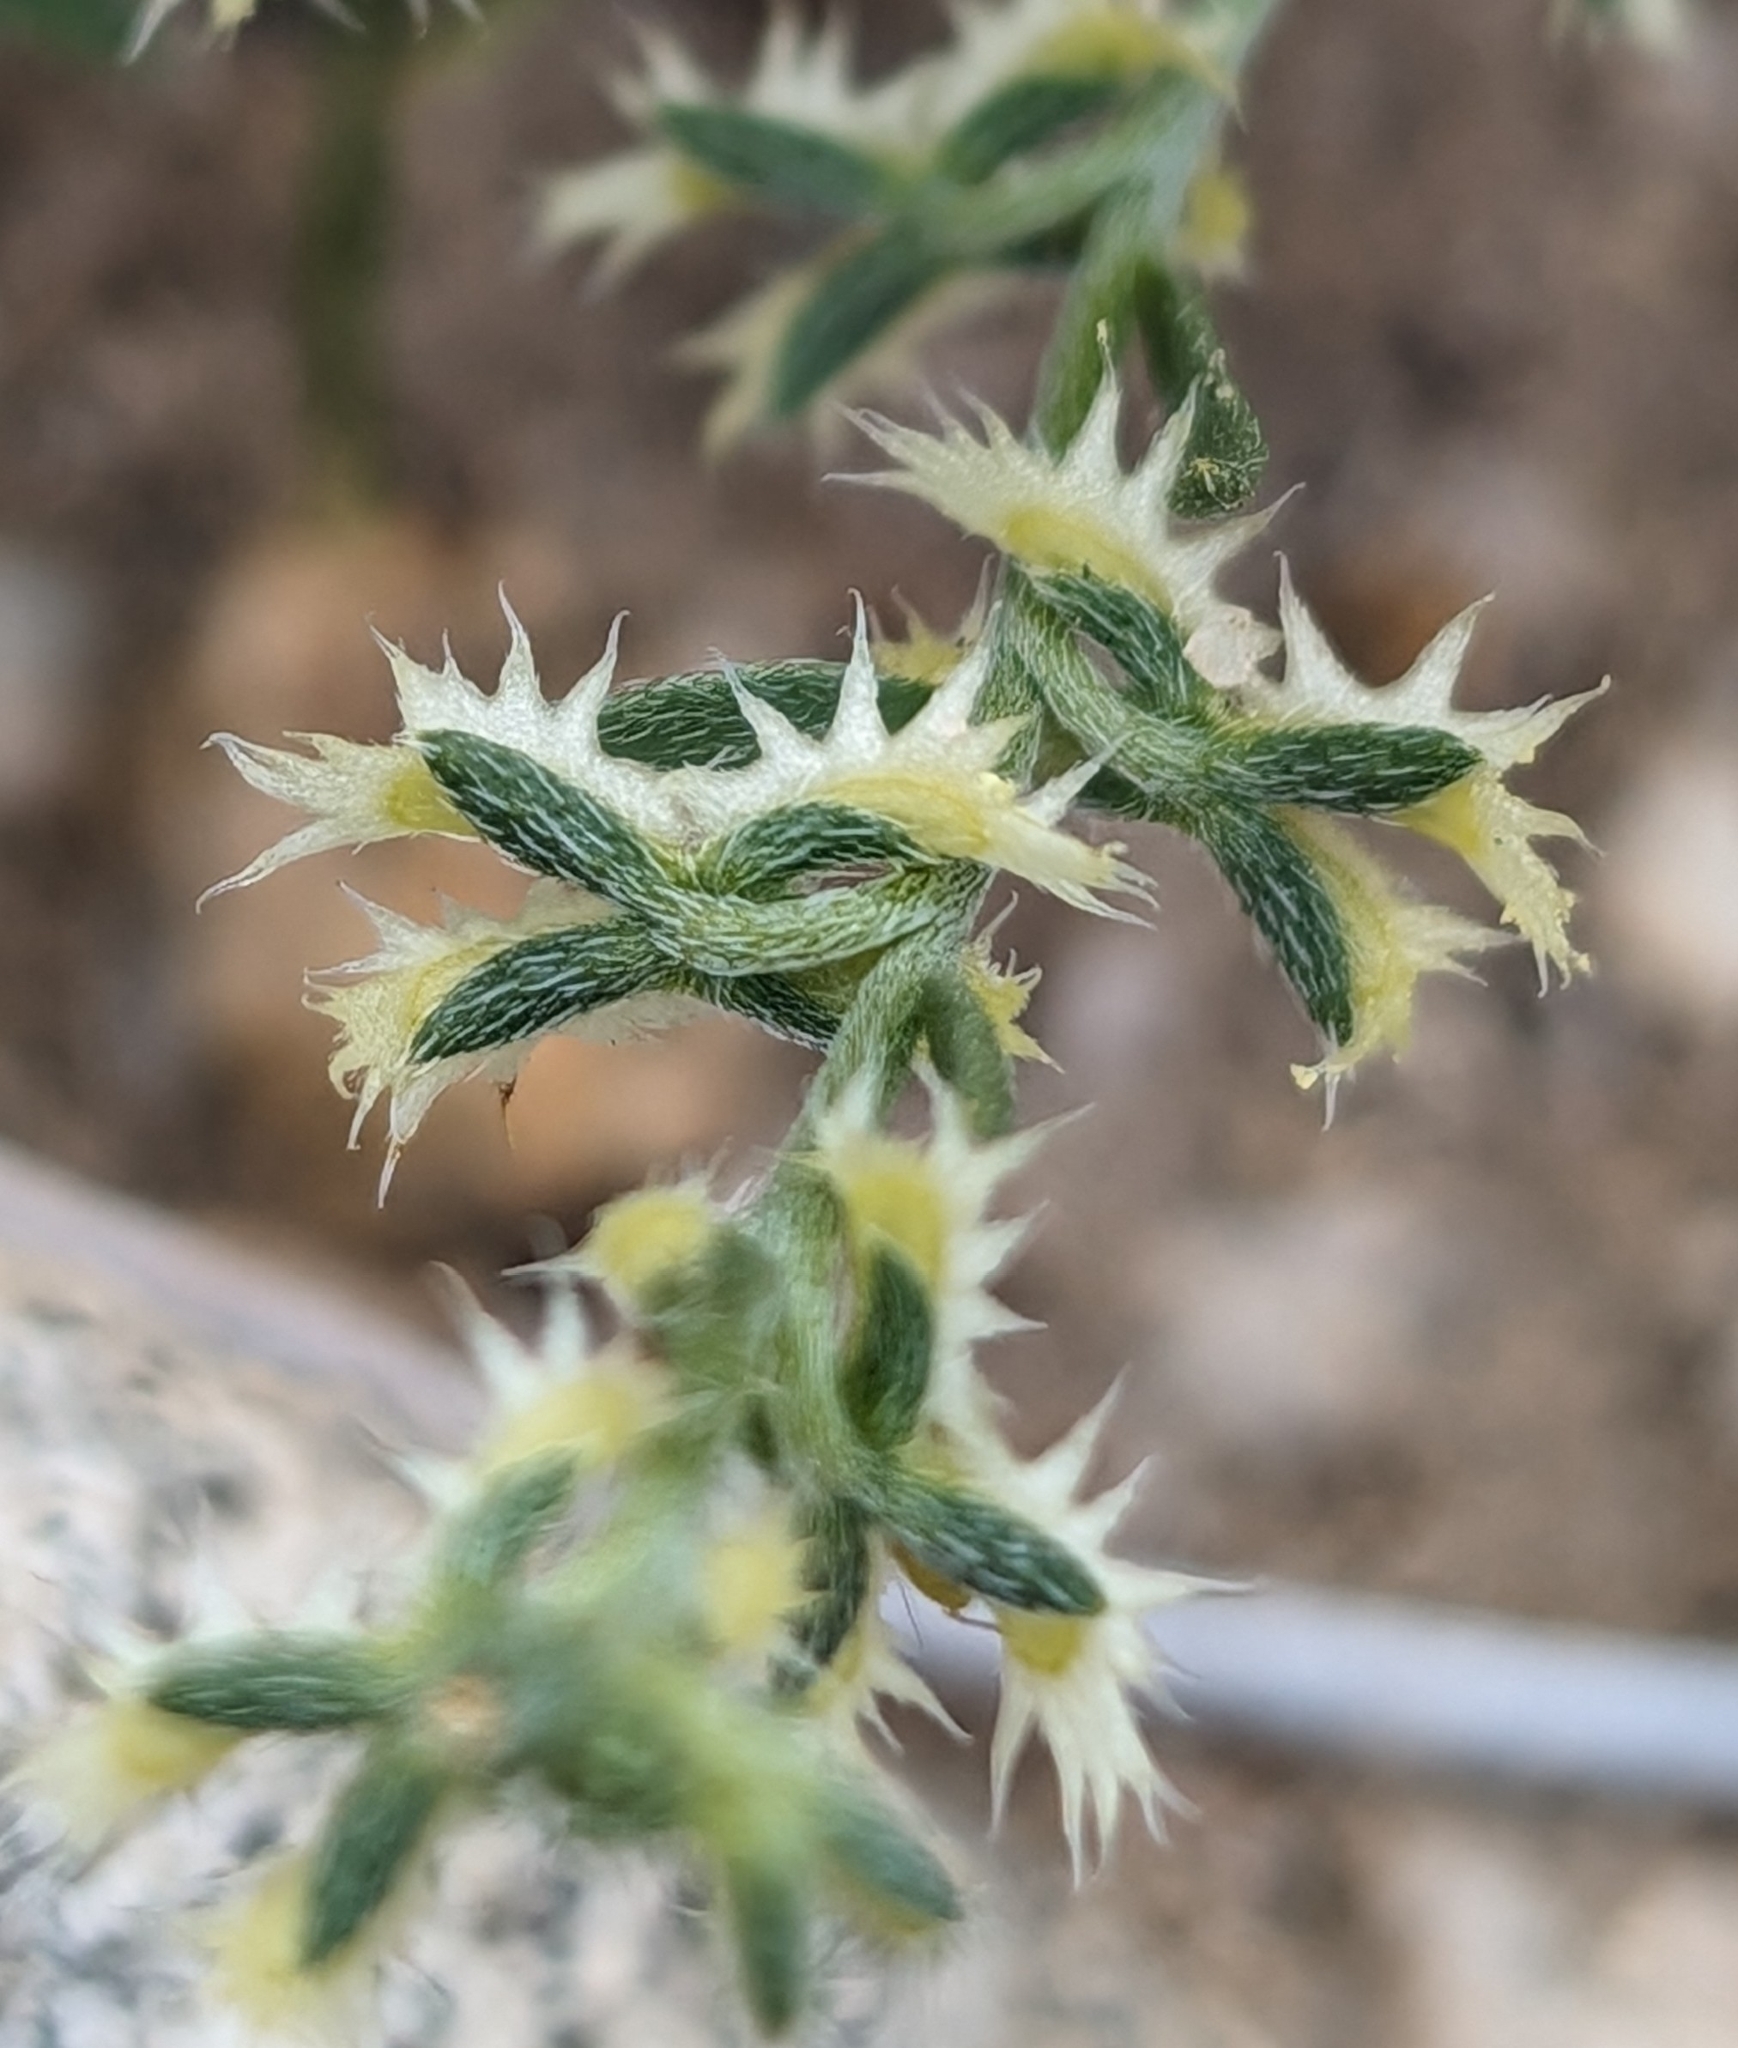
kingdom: Plantae
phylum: Tracheophyta
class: Magnoliopsida
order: Boraginales
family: Boraginaceae
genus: Pectocarya
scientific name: Pectocarya platycarpa
